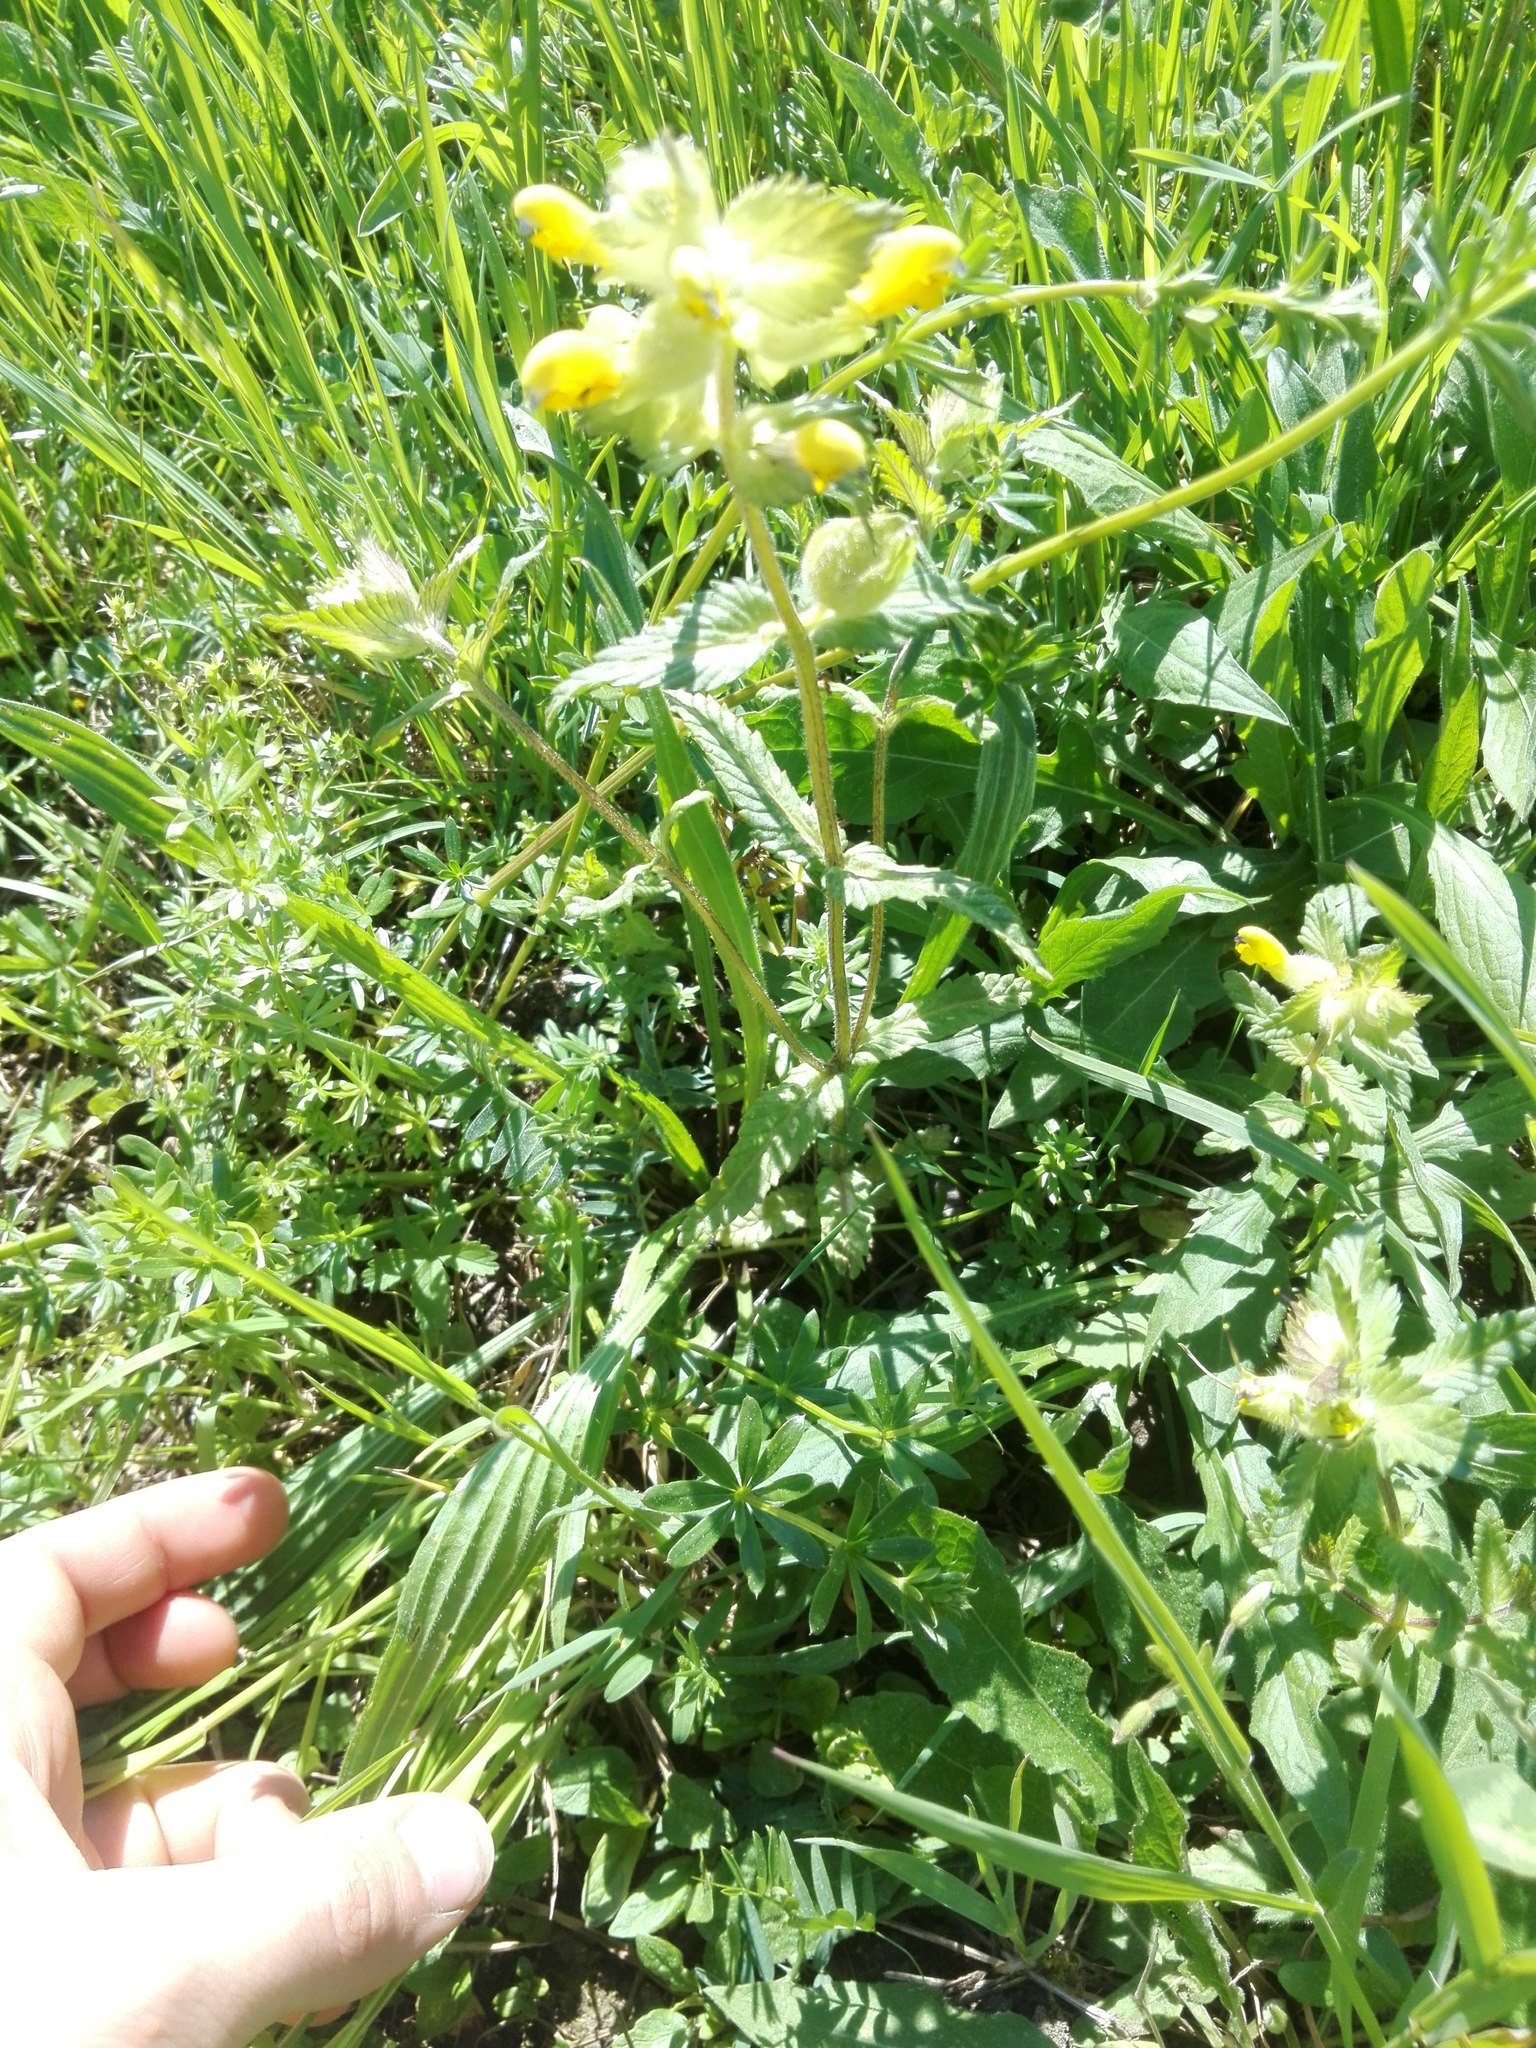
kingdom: Plantae
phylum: Tracheophyta
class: Magnoliopsida
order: Lamiales
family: Orobanchaceae
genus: Rhinanthus
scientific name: Rhinanthus alectorolophus
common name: Greater yellow-rattle
